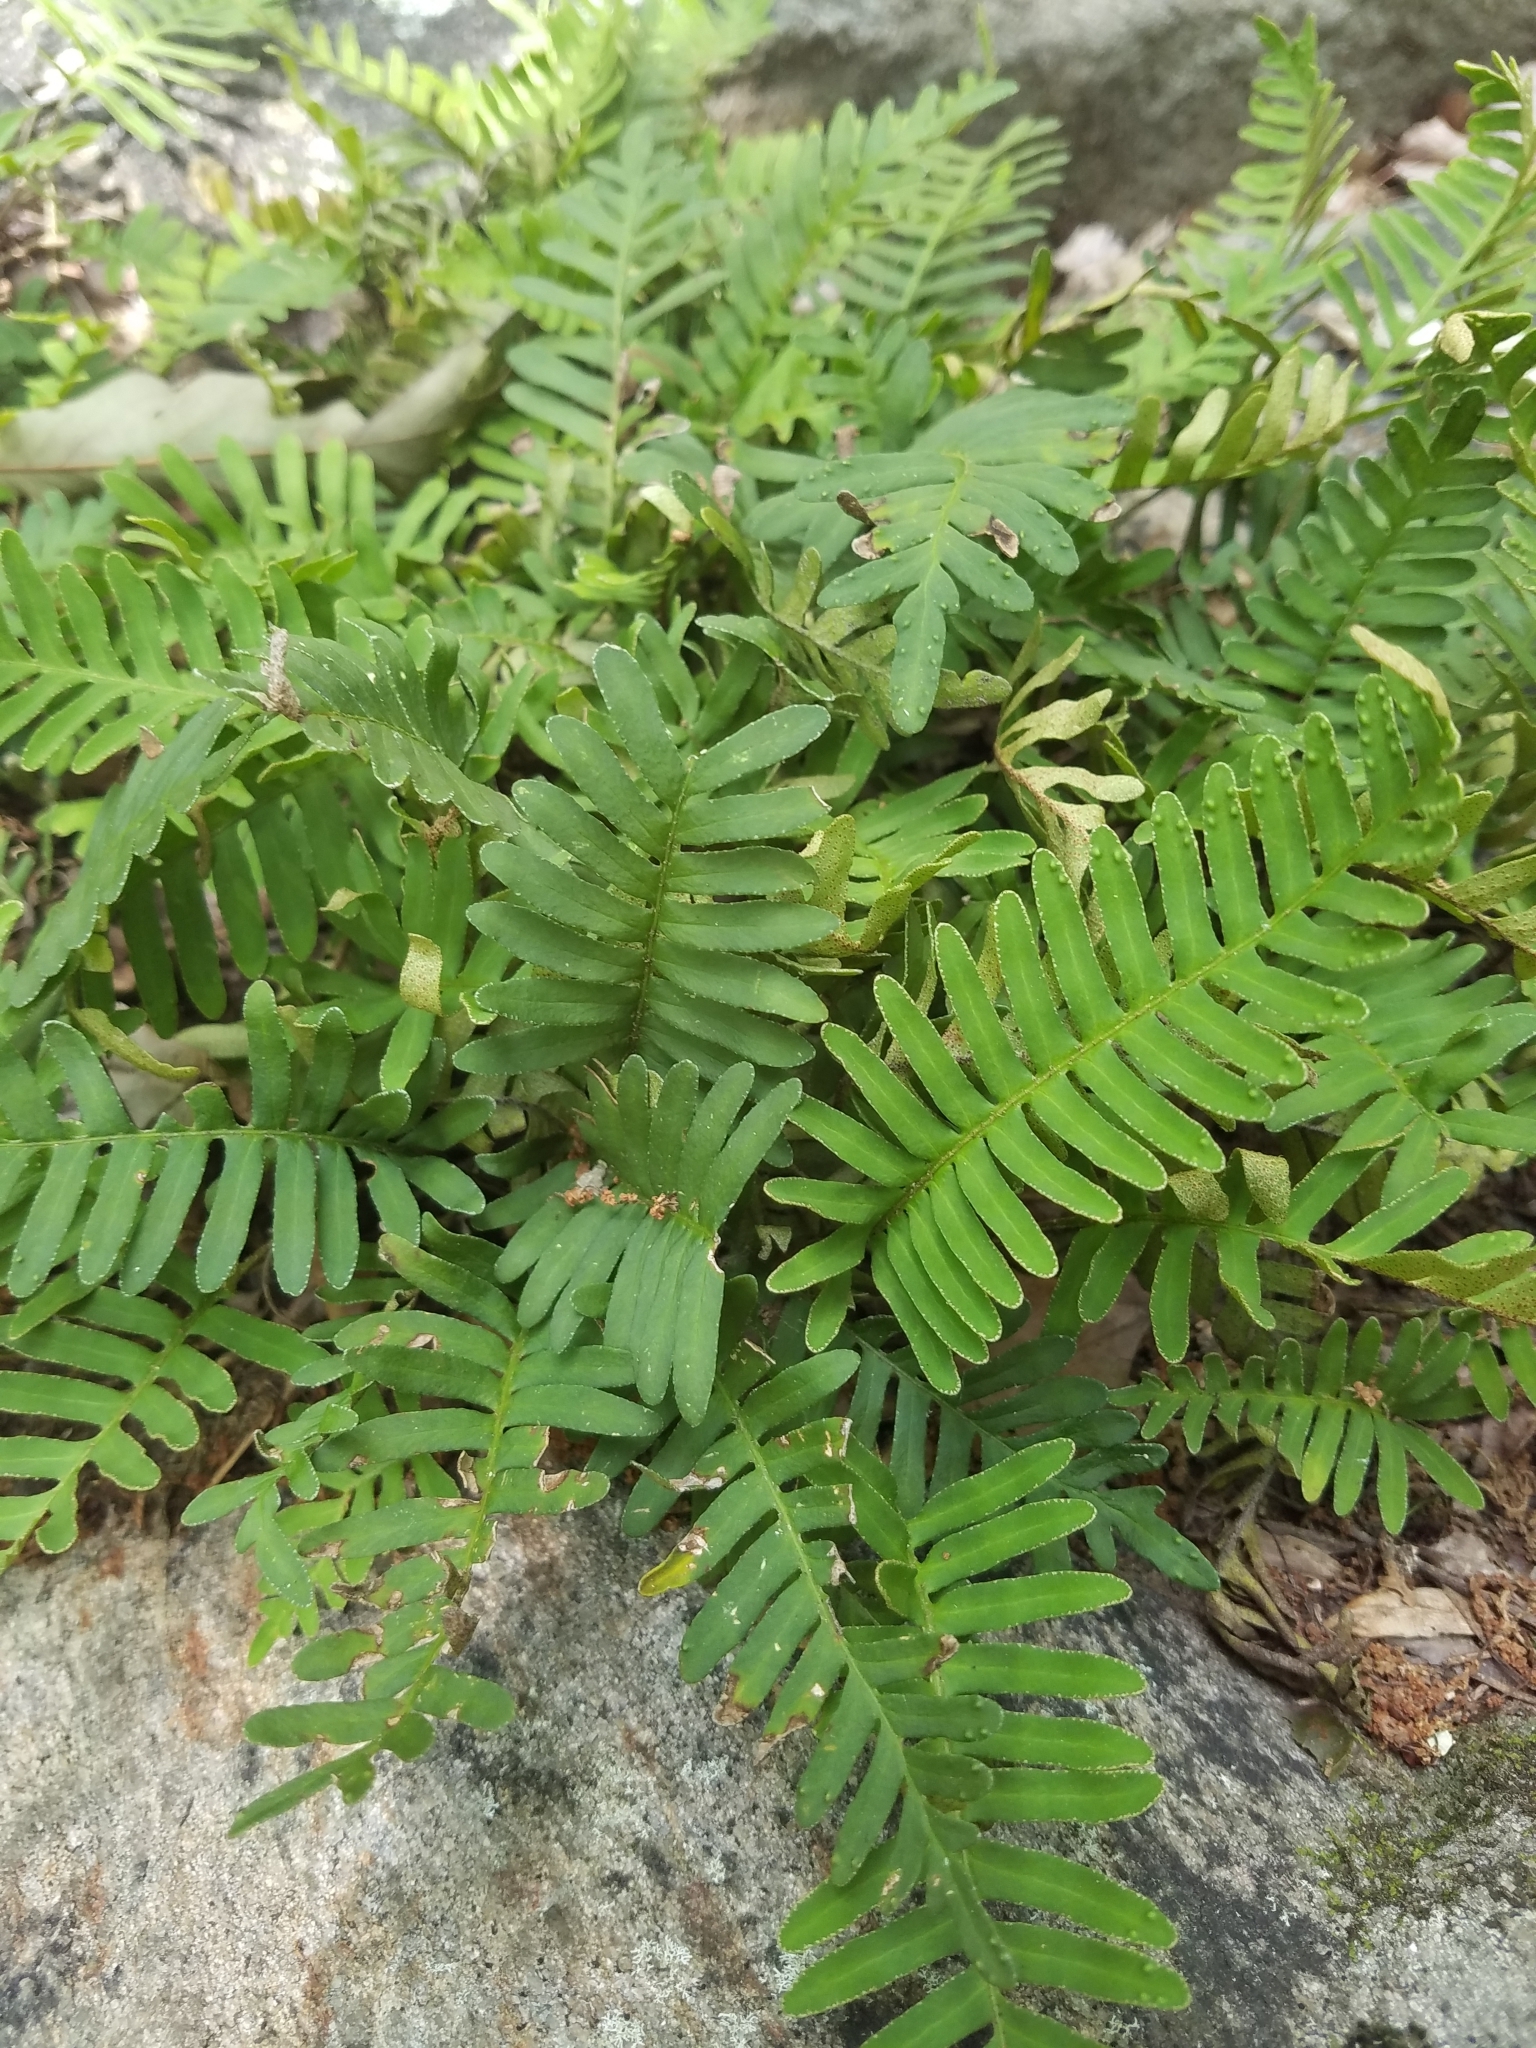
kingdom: Plantae
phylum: Tracheophyta
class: Polypodiopsida
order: Polypodiales
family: Polypodiaceae
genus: Pleopeltis
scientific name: Pleopeltis michauxiana
